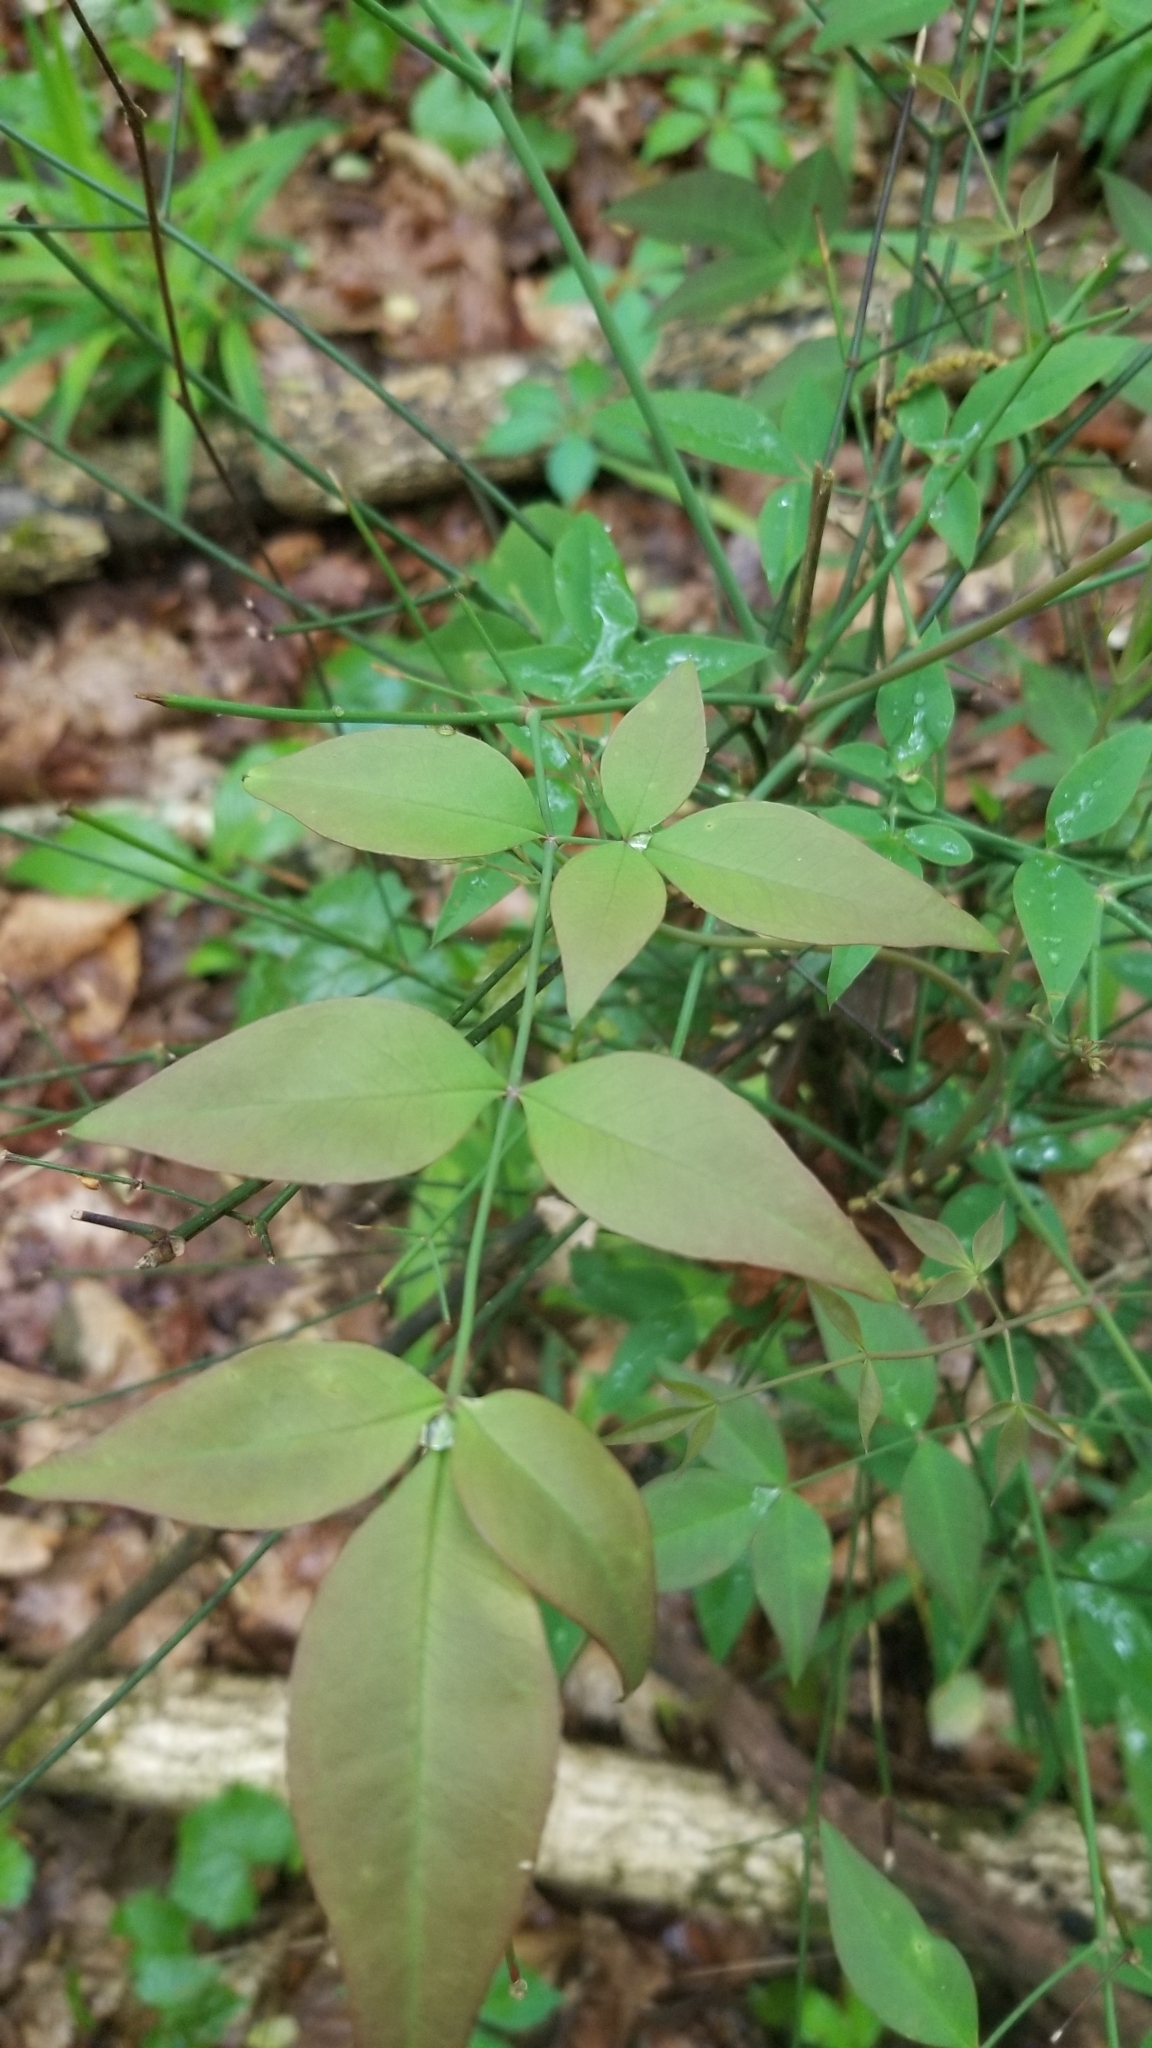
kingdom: Plantae
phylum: Tracheophyta
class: Magnoliopsida
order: Ranunculales
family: Berberidaceae
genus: Nandina
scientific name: Nandina domestica
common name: Sacred bamboo
